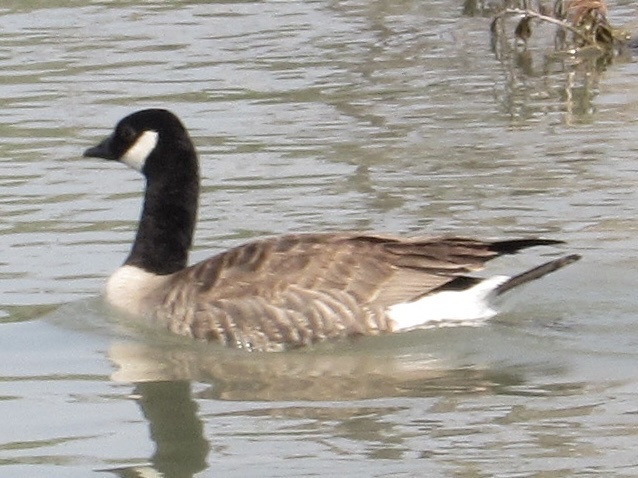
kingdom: Animalia
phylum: Chordata
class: Aves
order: Anseriformes
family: Anatidae
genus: Branta
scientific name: Branta canadensis
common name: Canada goose
